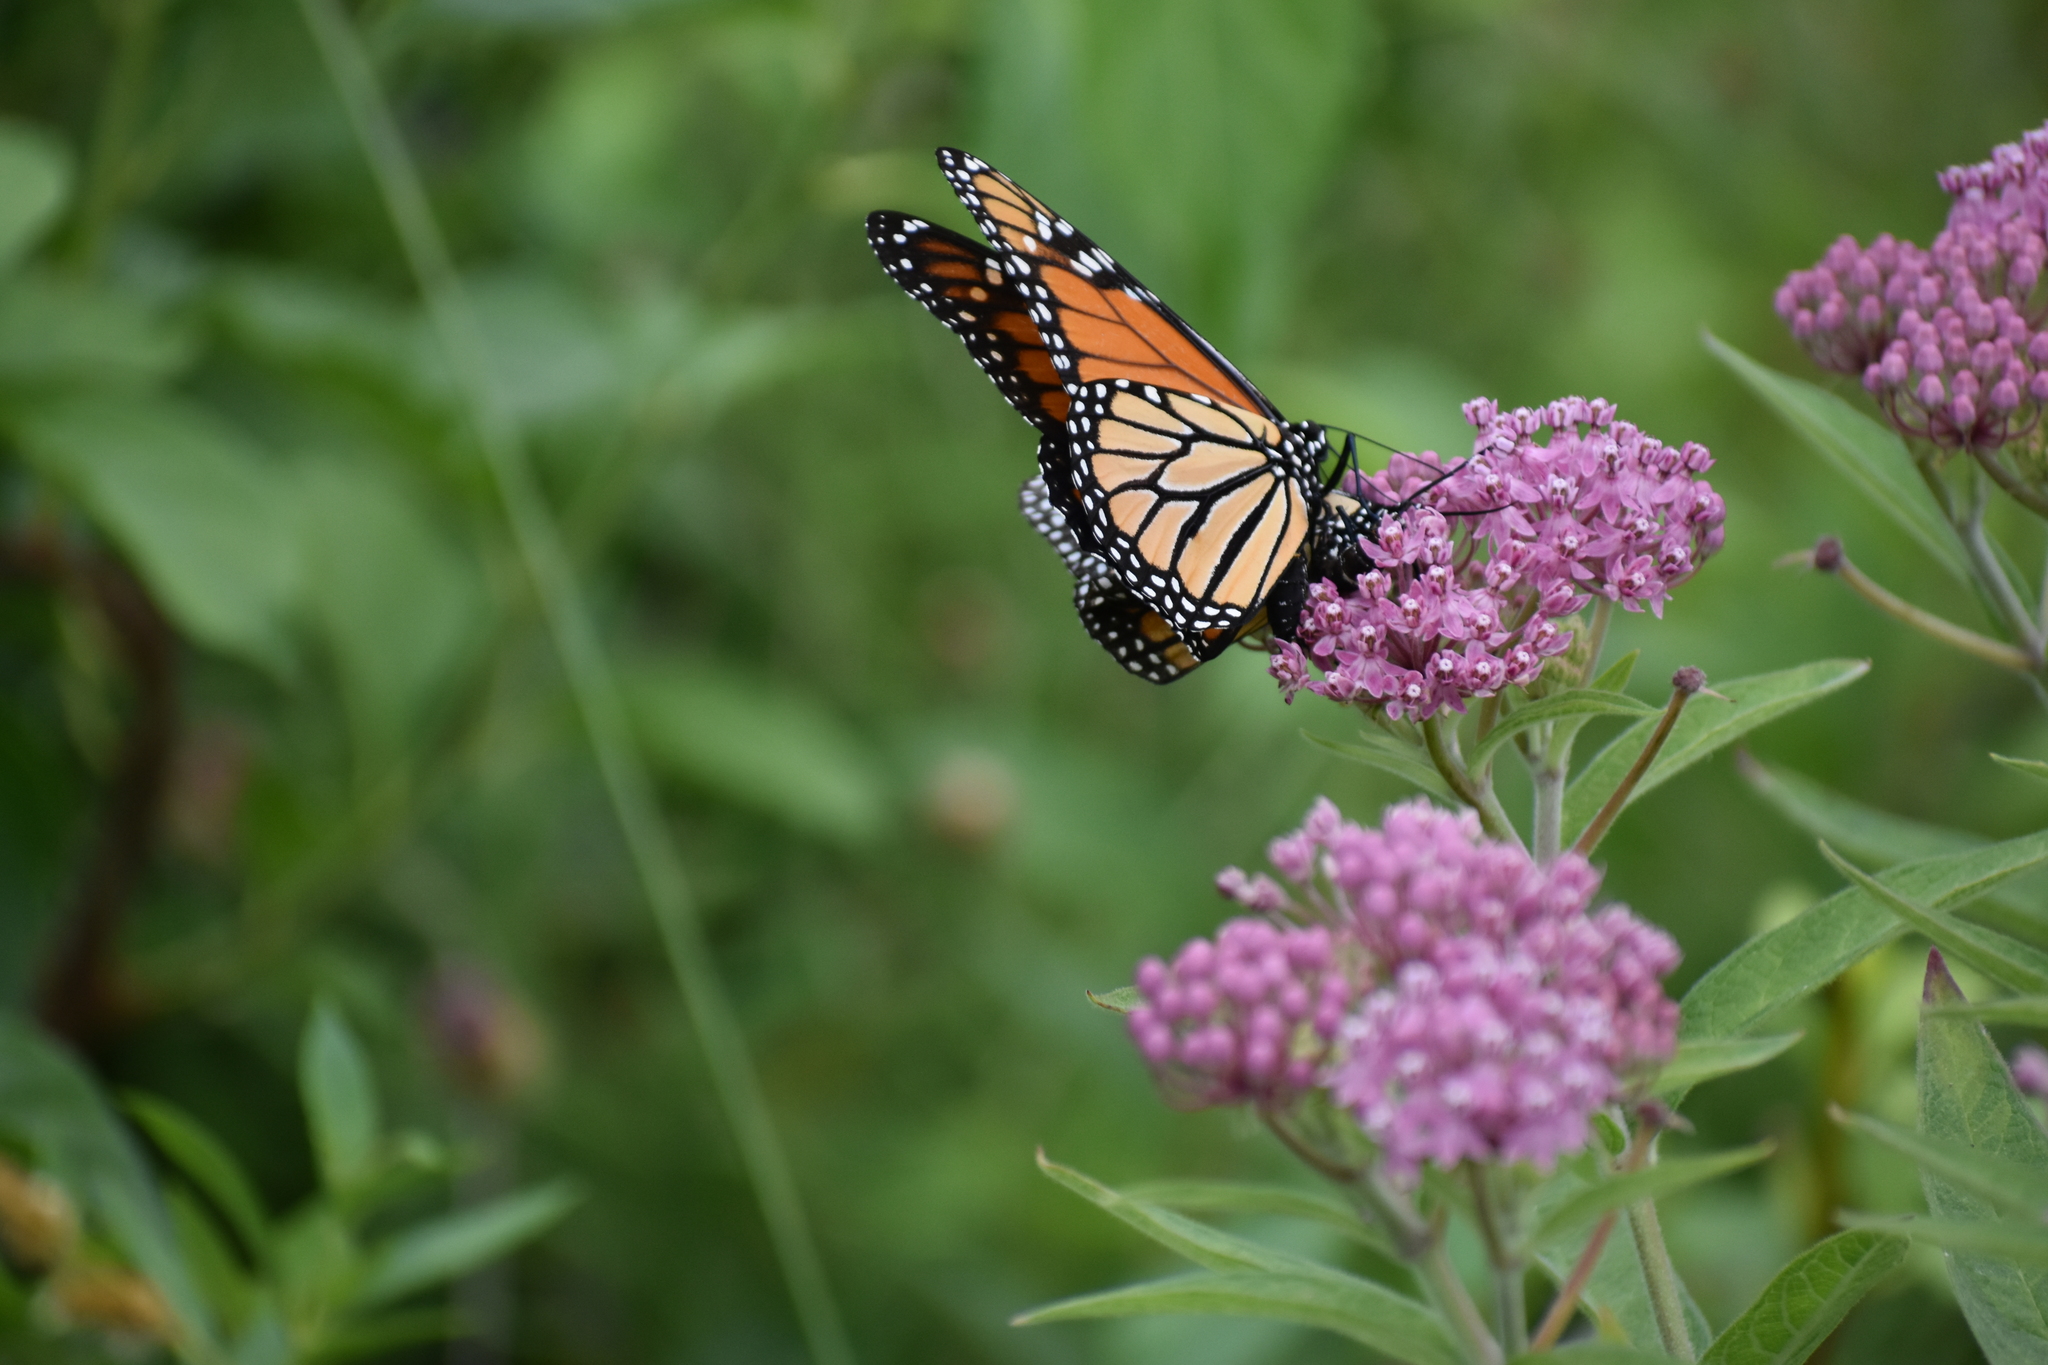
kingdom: Animalia
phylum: Arthropoda
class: Insecta
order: Lepidoptera
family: Nymphalidae
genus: Danaus
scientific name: Danaus plexippus
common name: Monarch
